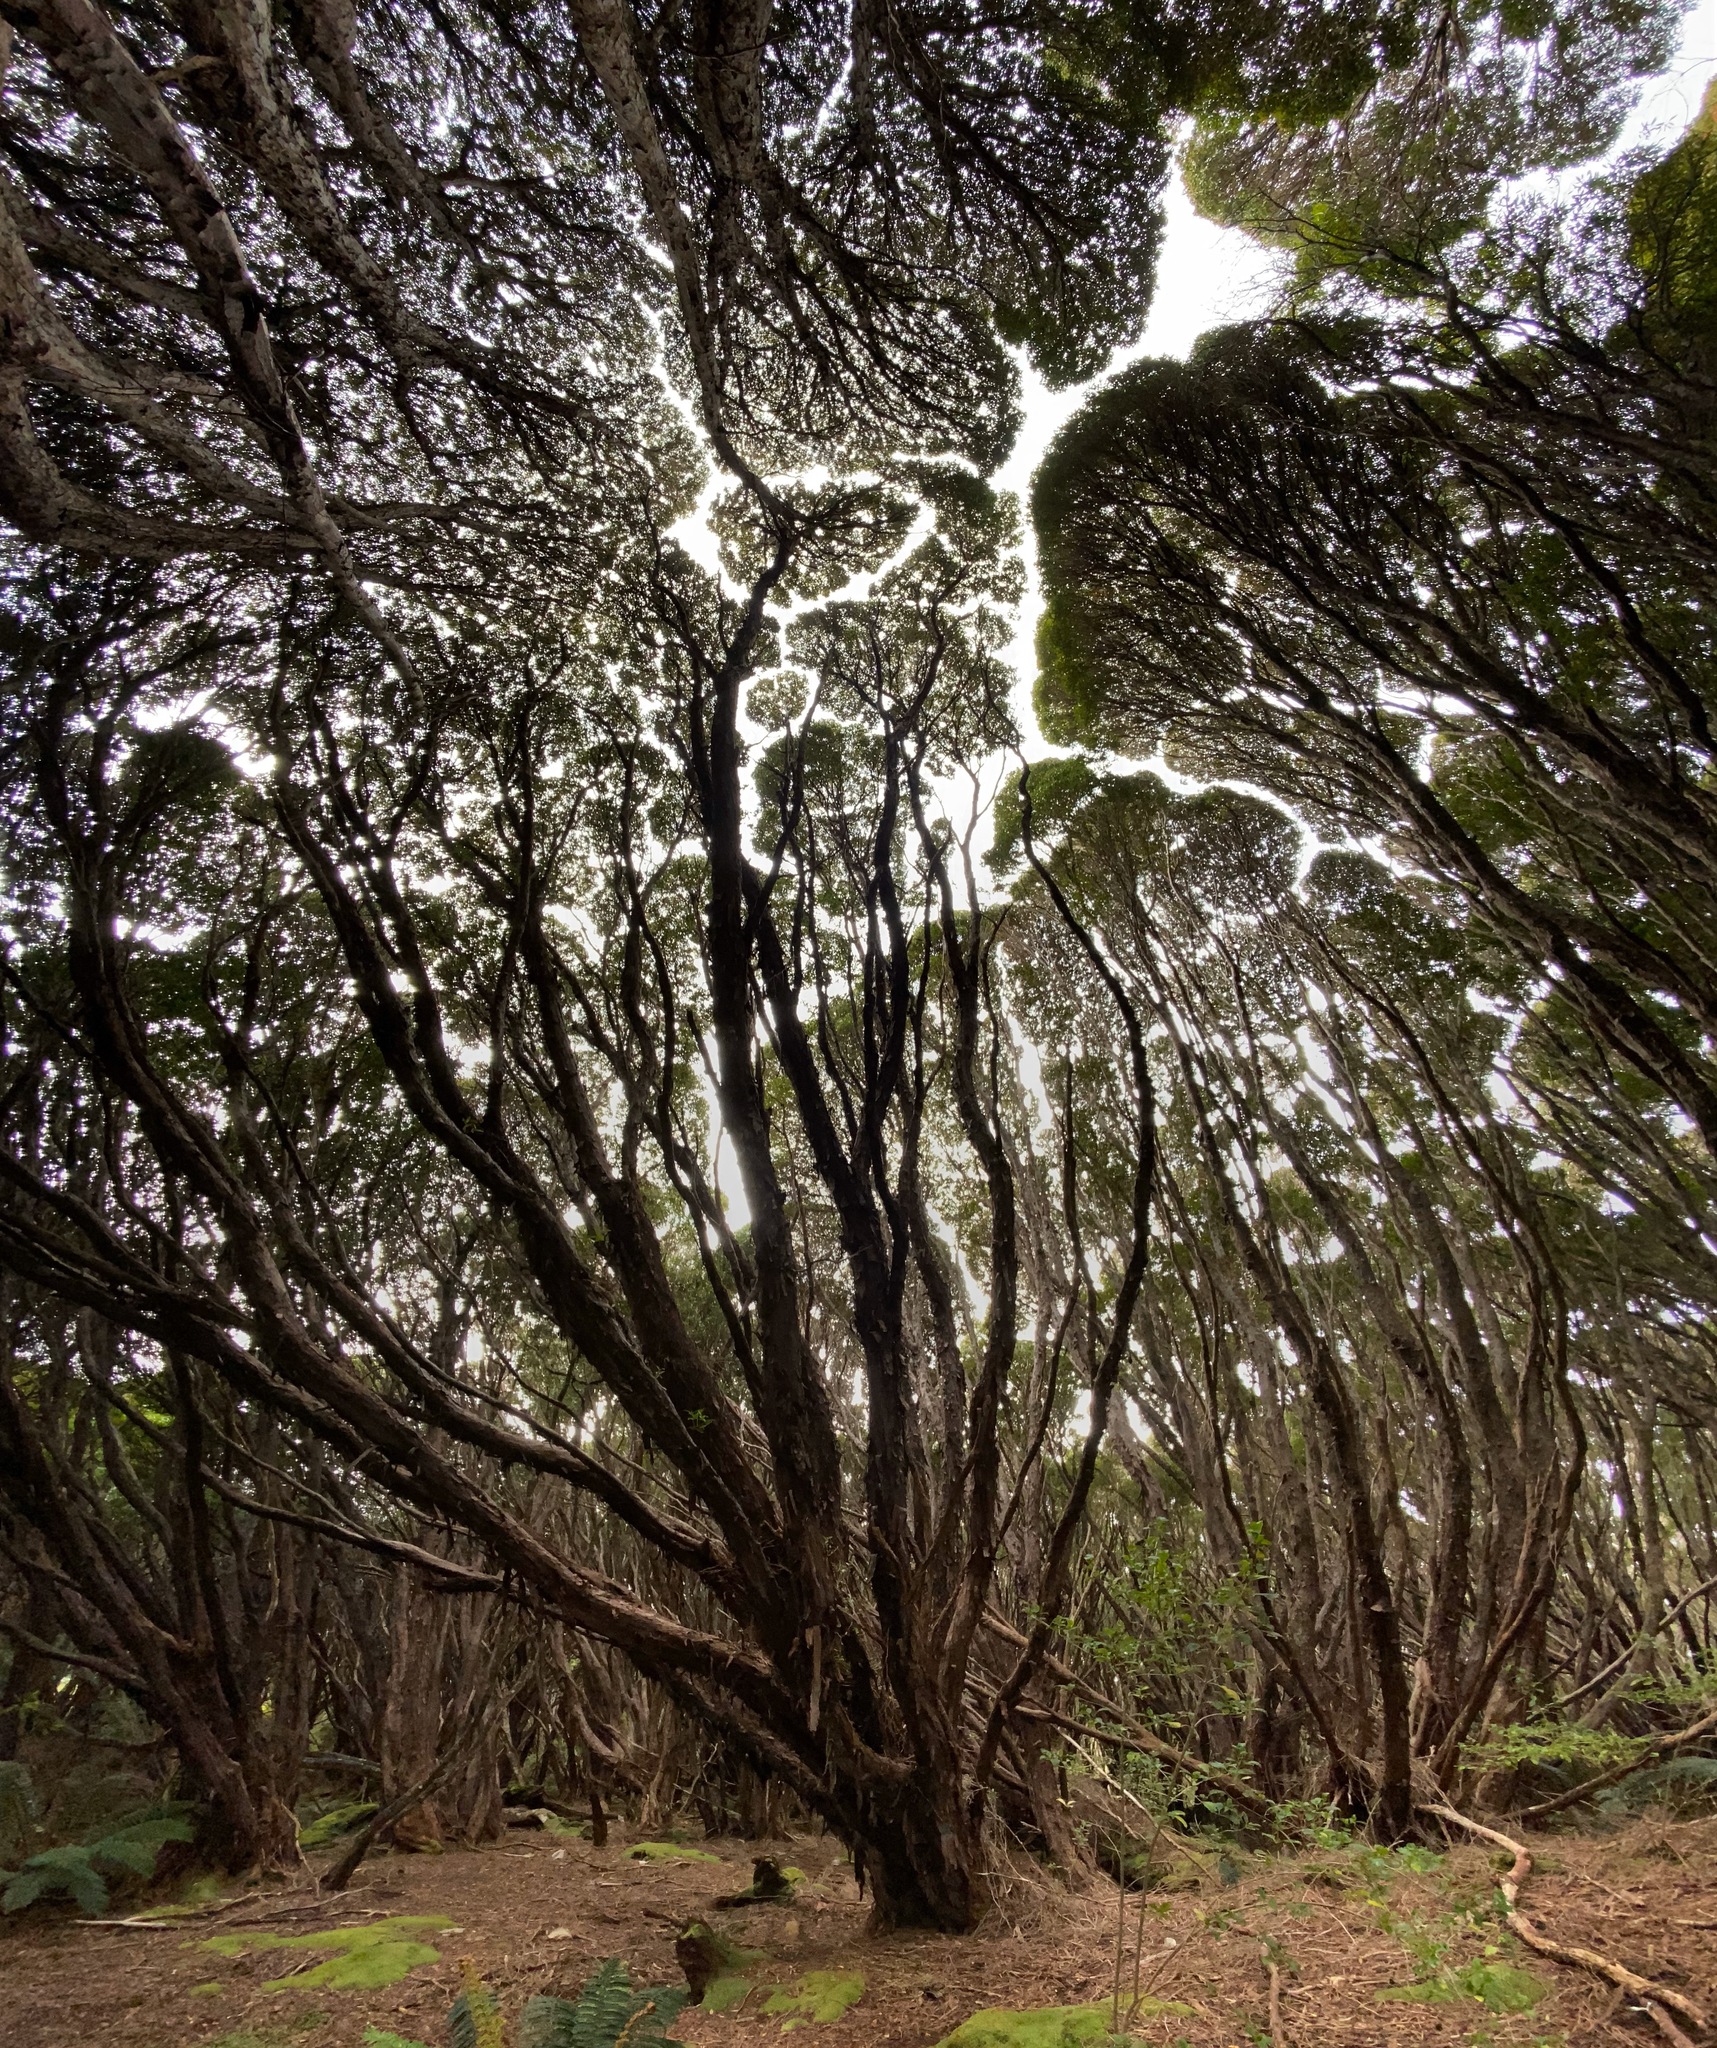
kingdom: Plantae
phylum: Tracheophyta
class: Magnoliopsida
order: Myrtales
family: Myrtaceae
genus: Metrosideros
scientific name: Metrosideros umbellata
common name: Southern rata
